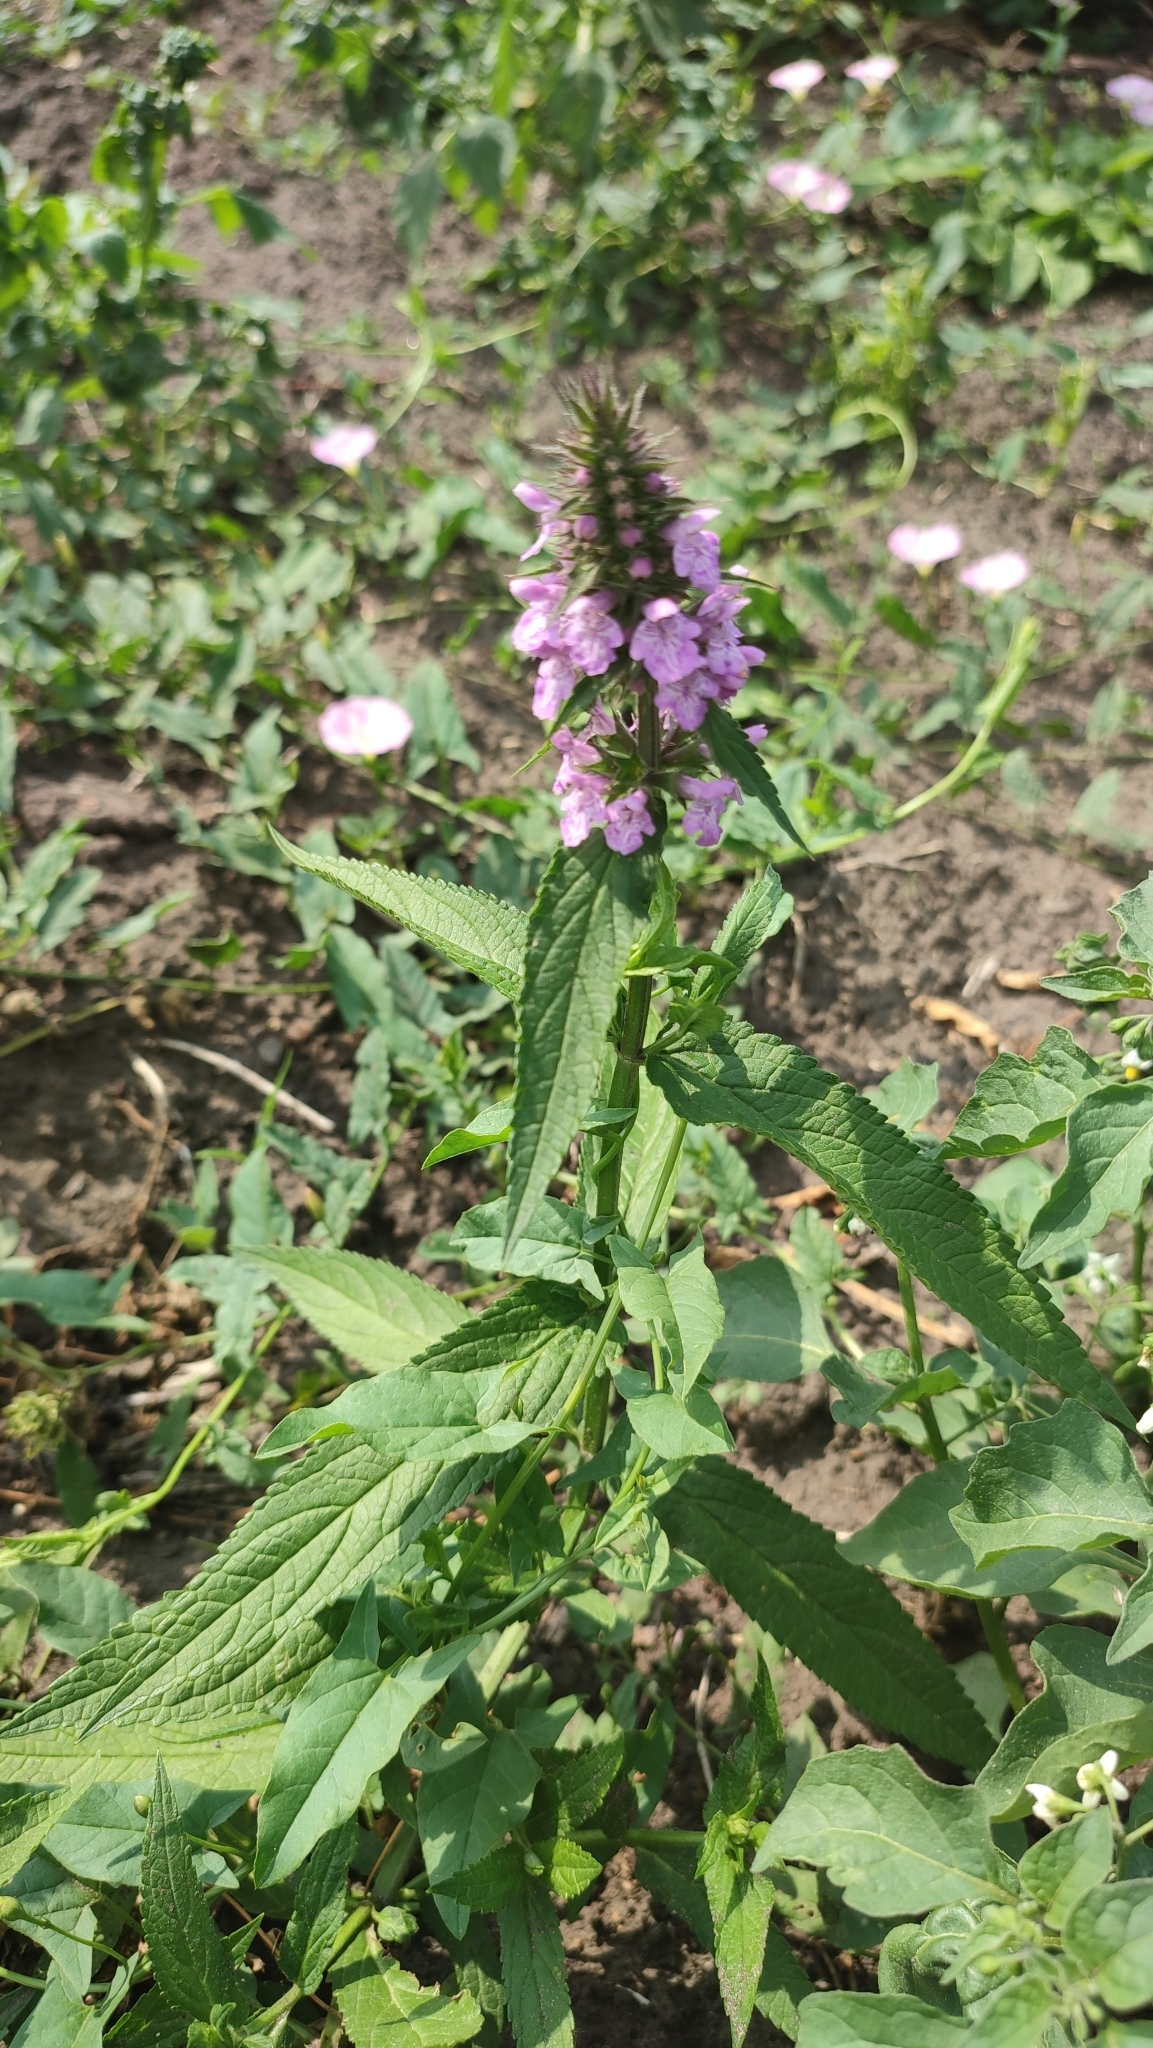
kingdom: Plantae
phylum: Tracheophyta
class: Magnoliopsida
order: Lamiales
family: Lamiaceae
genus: Stachys
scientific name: Stachys palustris
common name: Marsh woundwort
